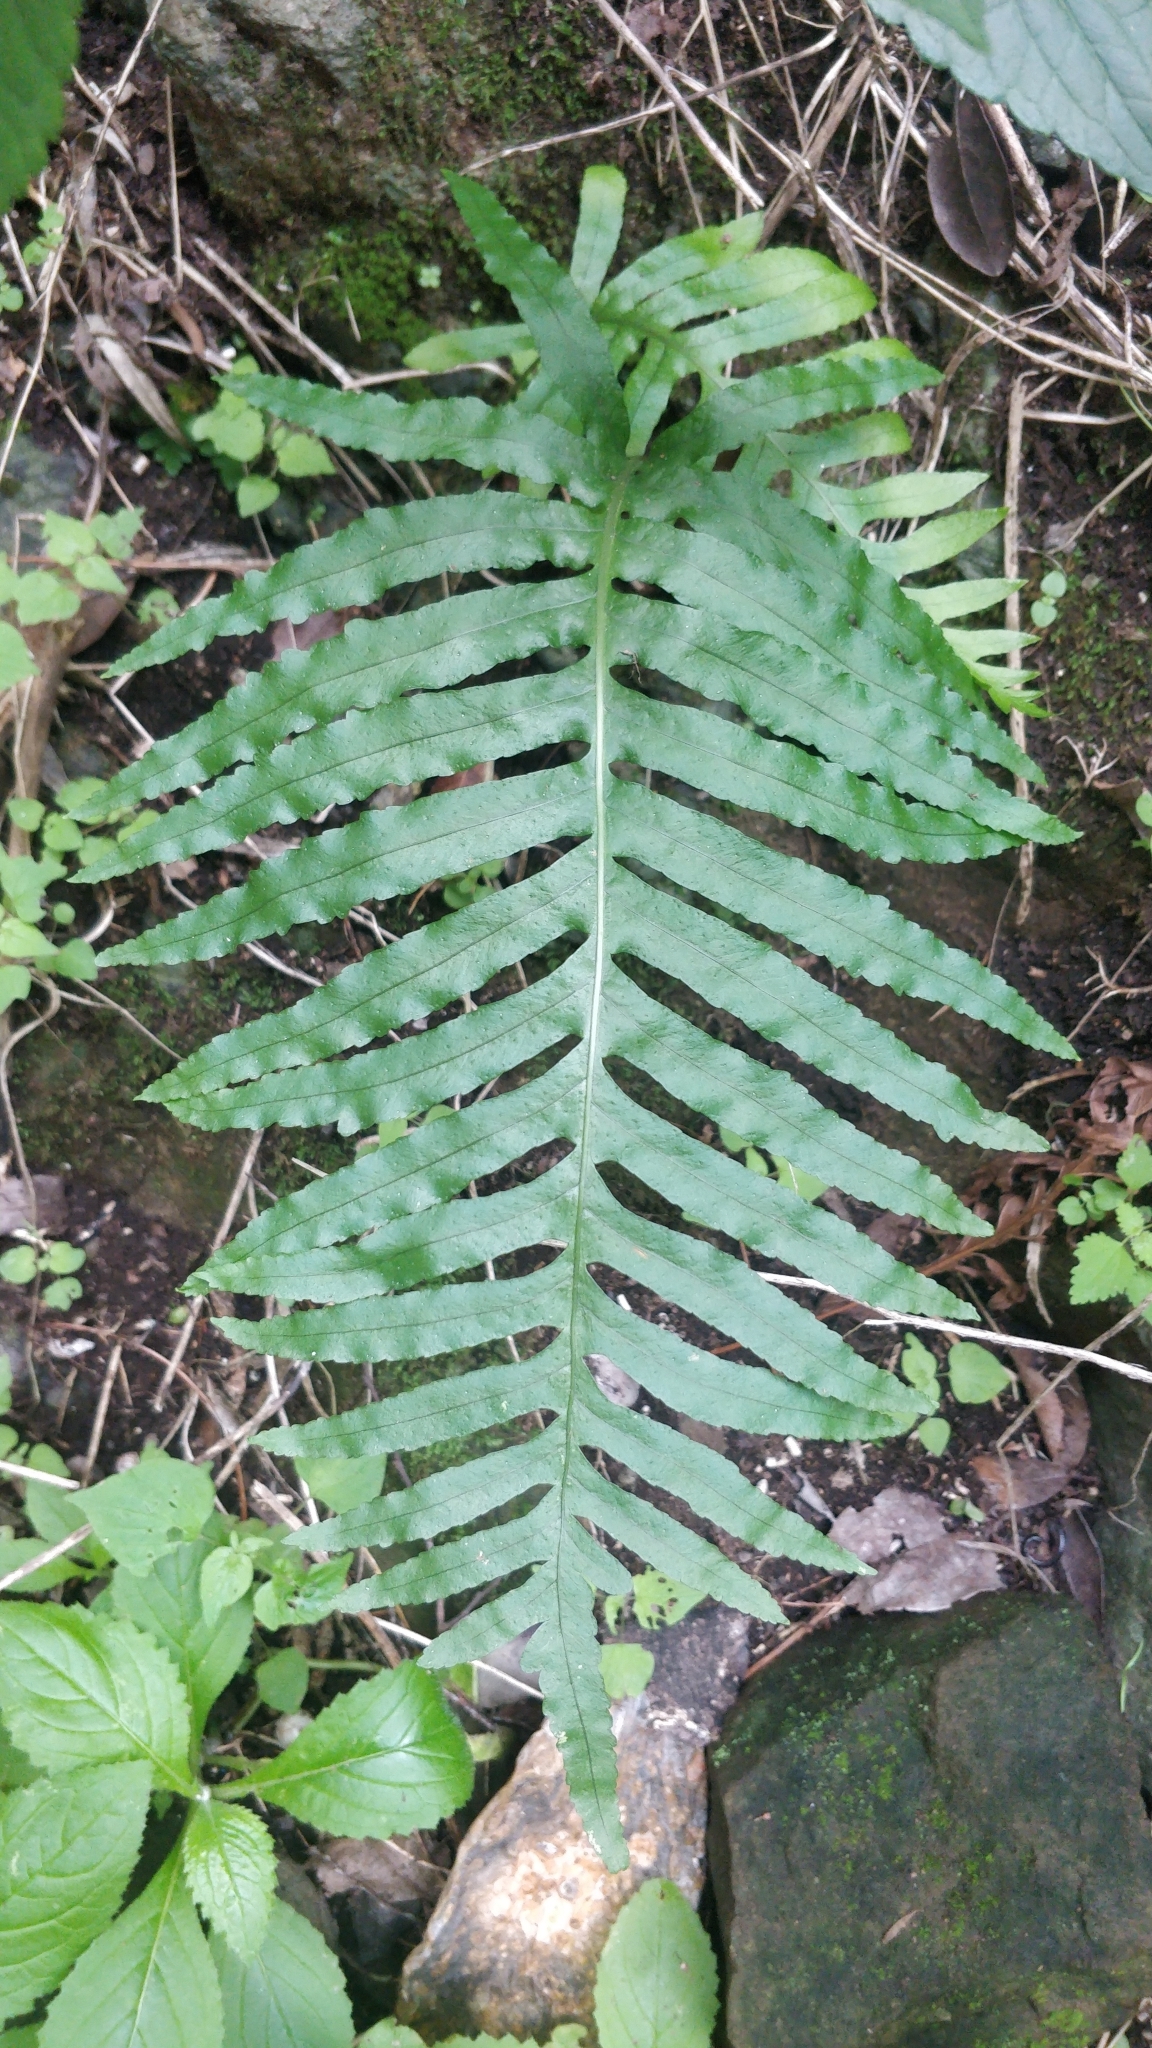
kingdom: Plantae
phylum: Tracheophyta
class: Polypodiopsida
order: Polypodiales
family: Polypodiaceae
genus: Polypodium
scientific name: Polypodium macaronesicum
